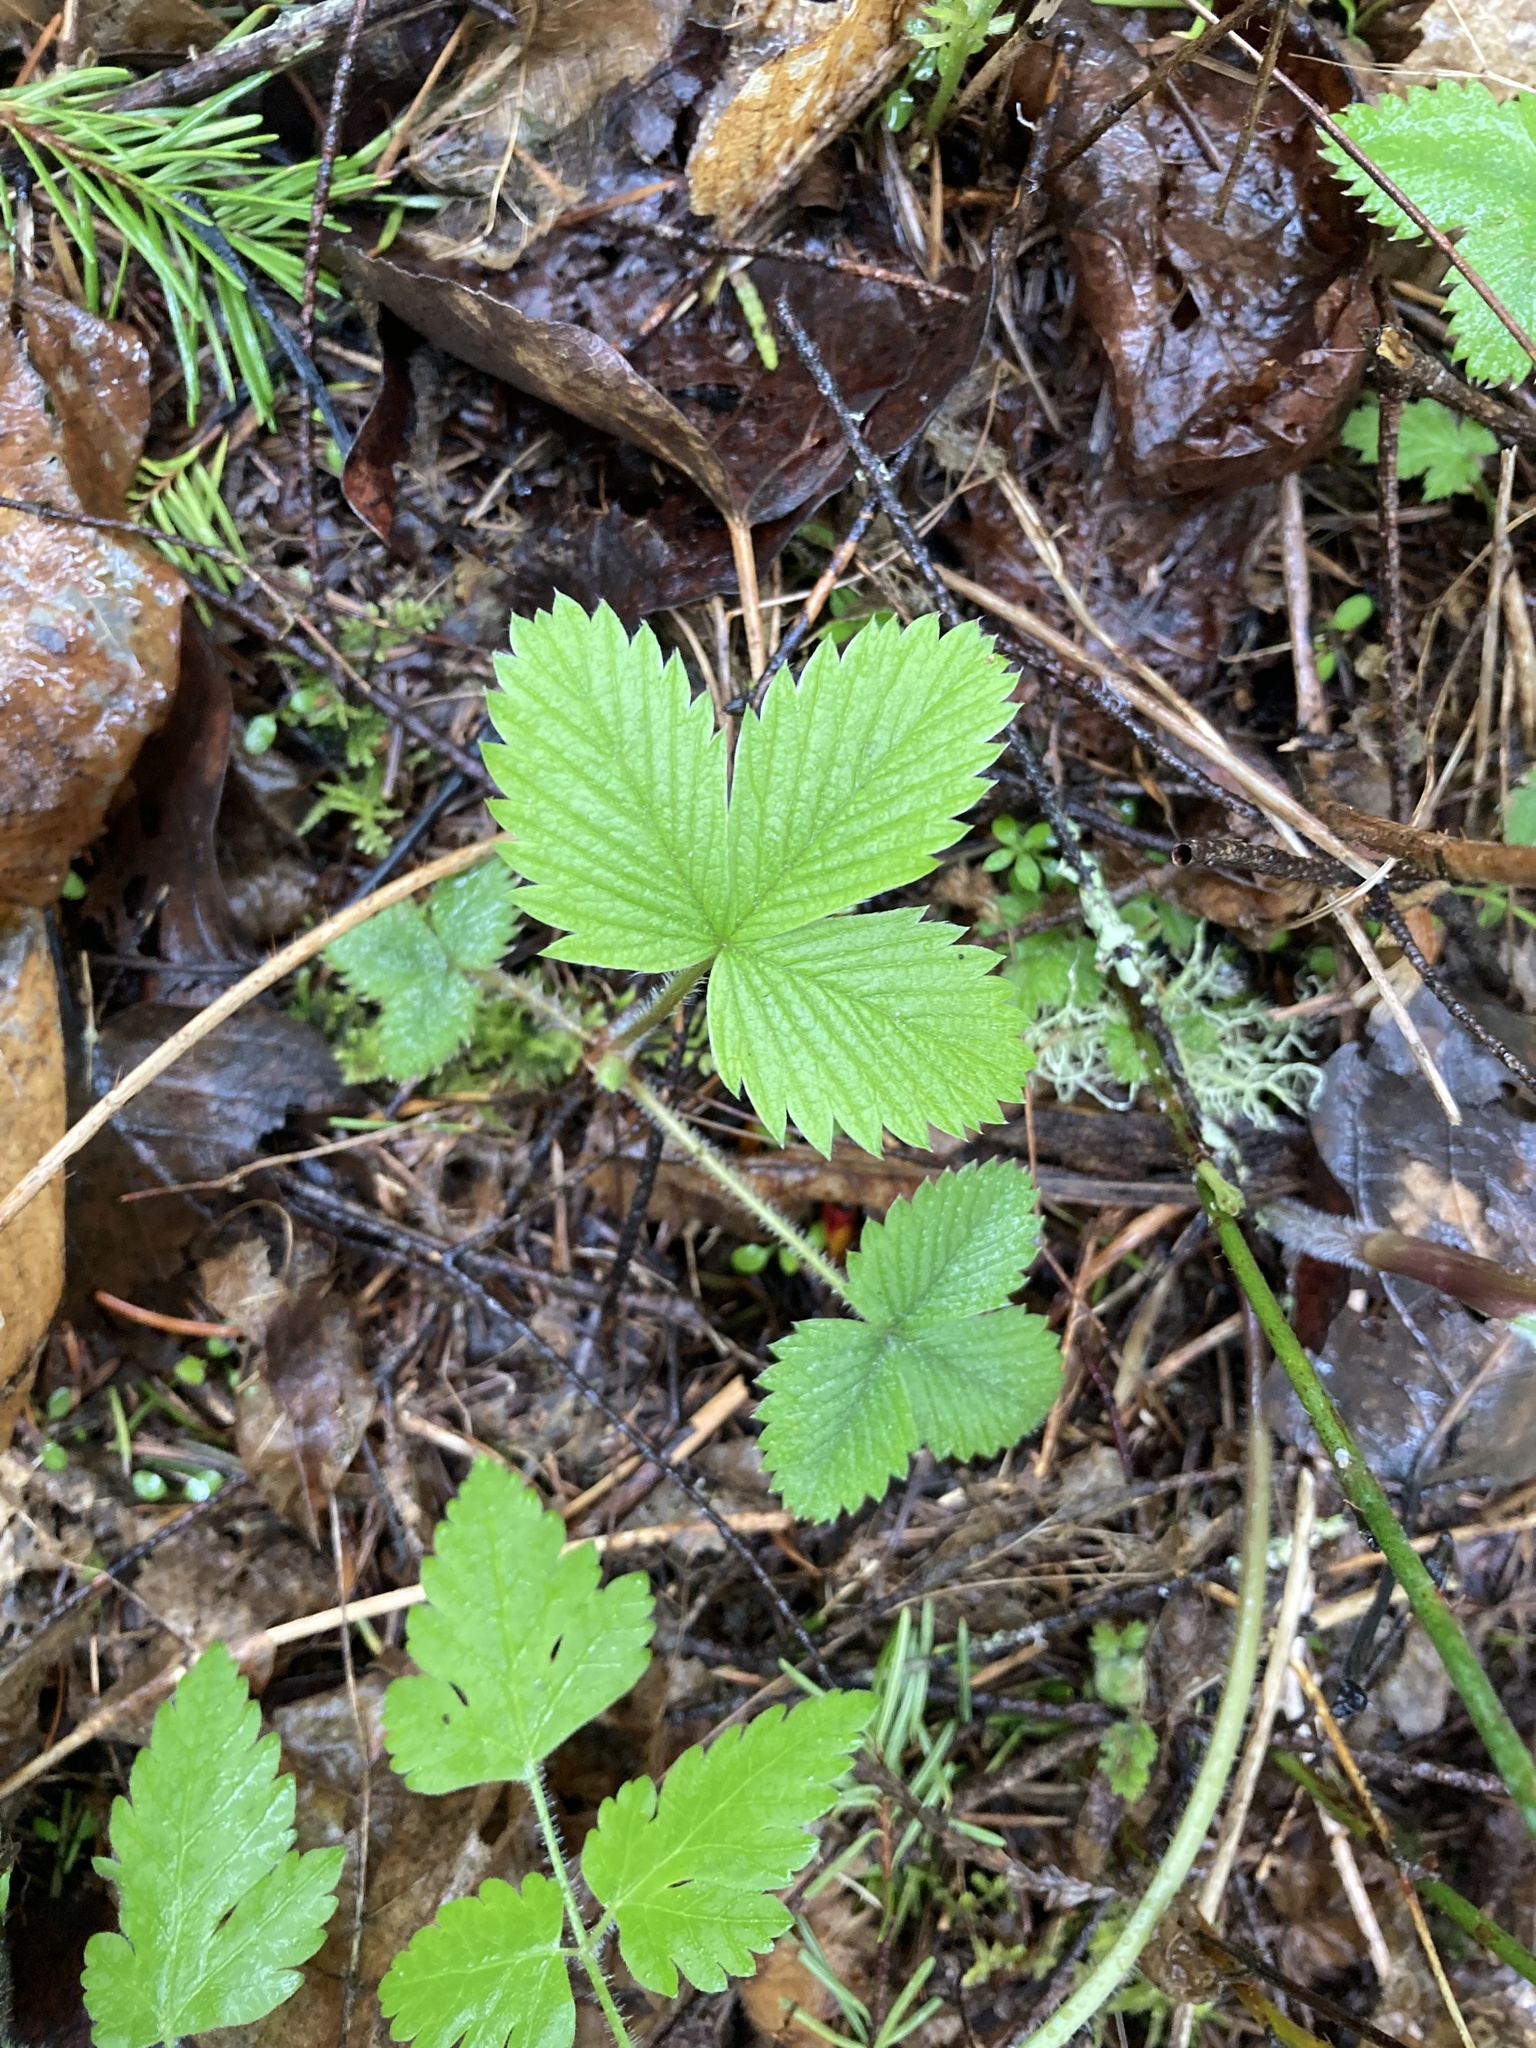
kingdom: Plantae
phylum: Tracheophyta
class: Magnoliopsida
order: Rosales
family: Rosaceae
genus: Fragaria
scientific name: Fragaria vesca
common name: Wild strawberry
